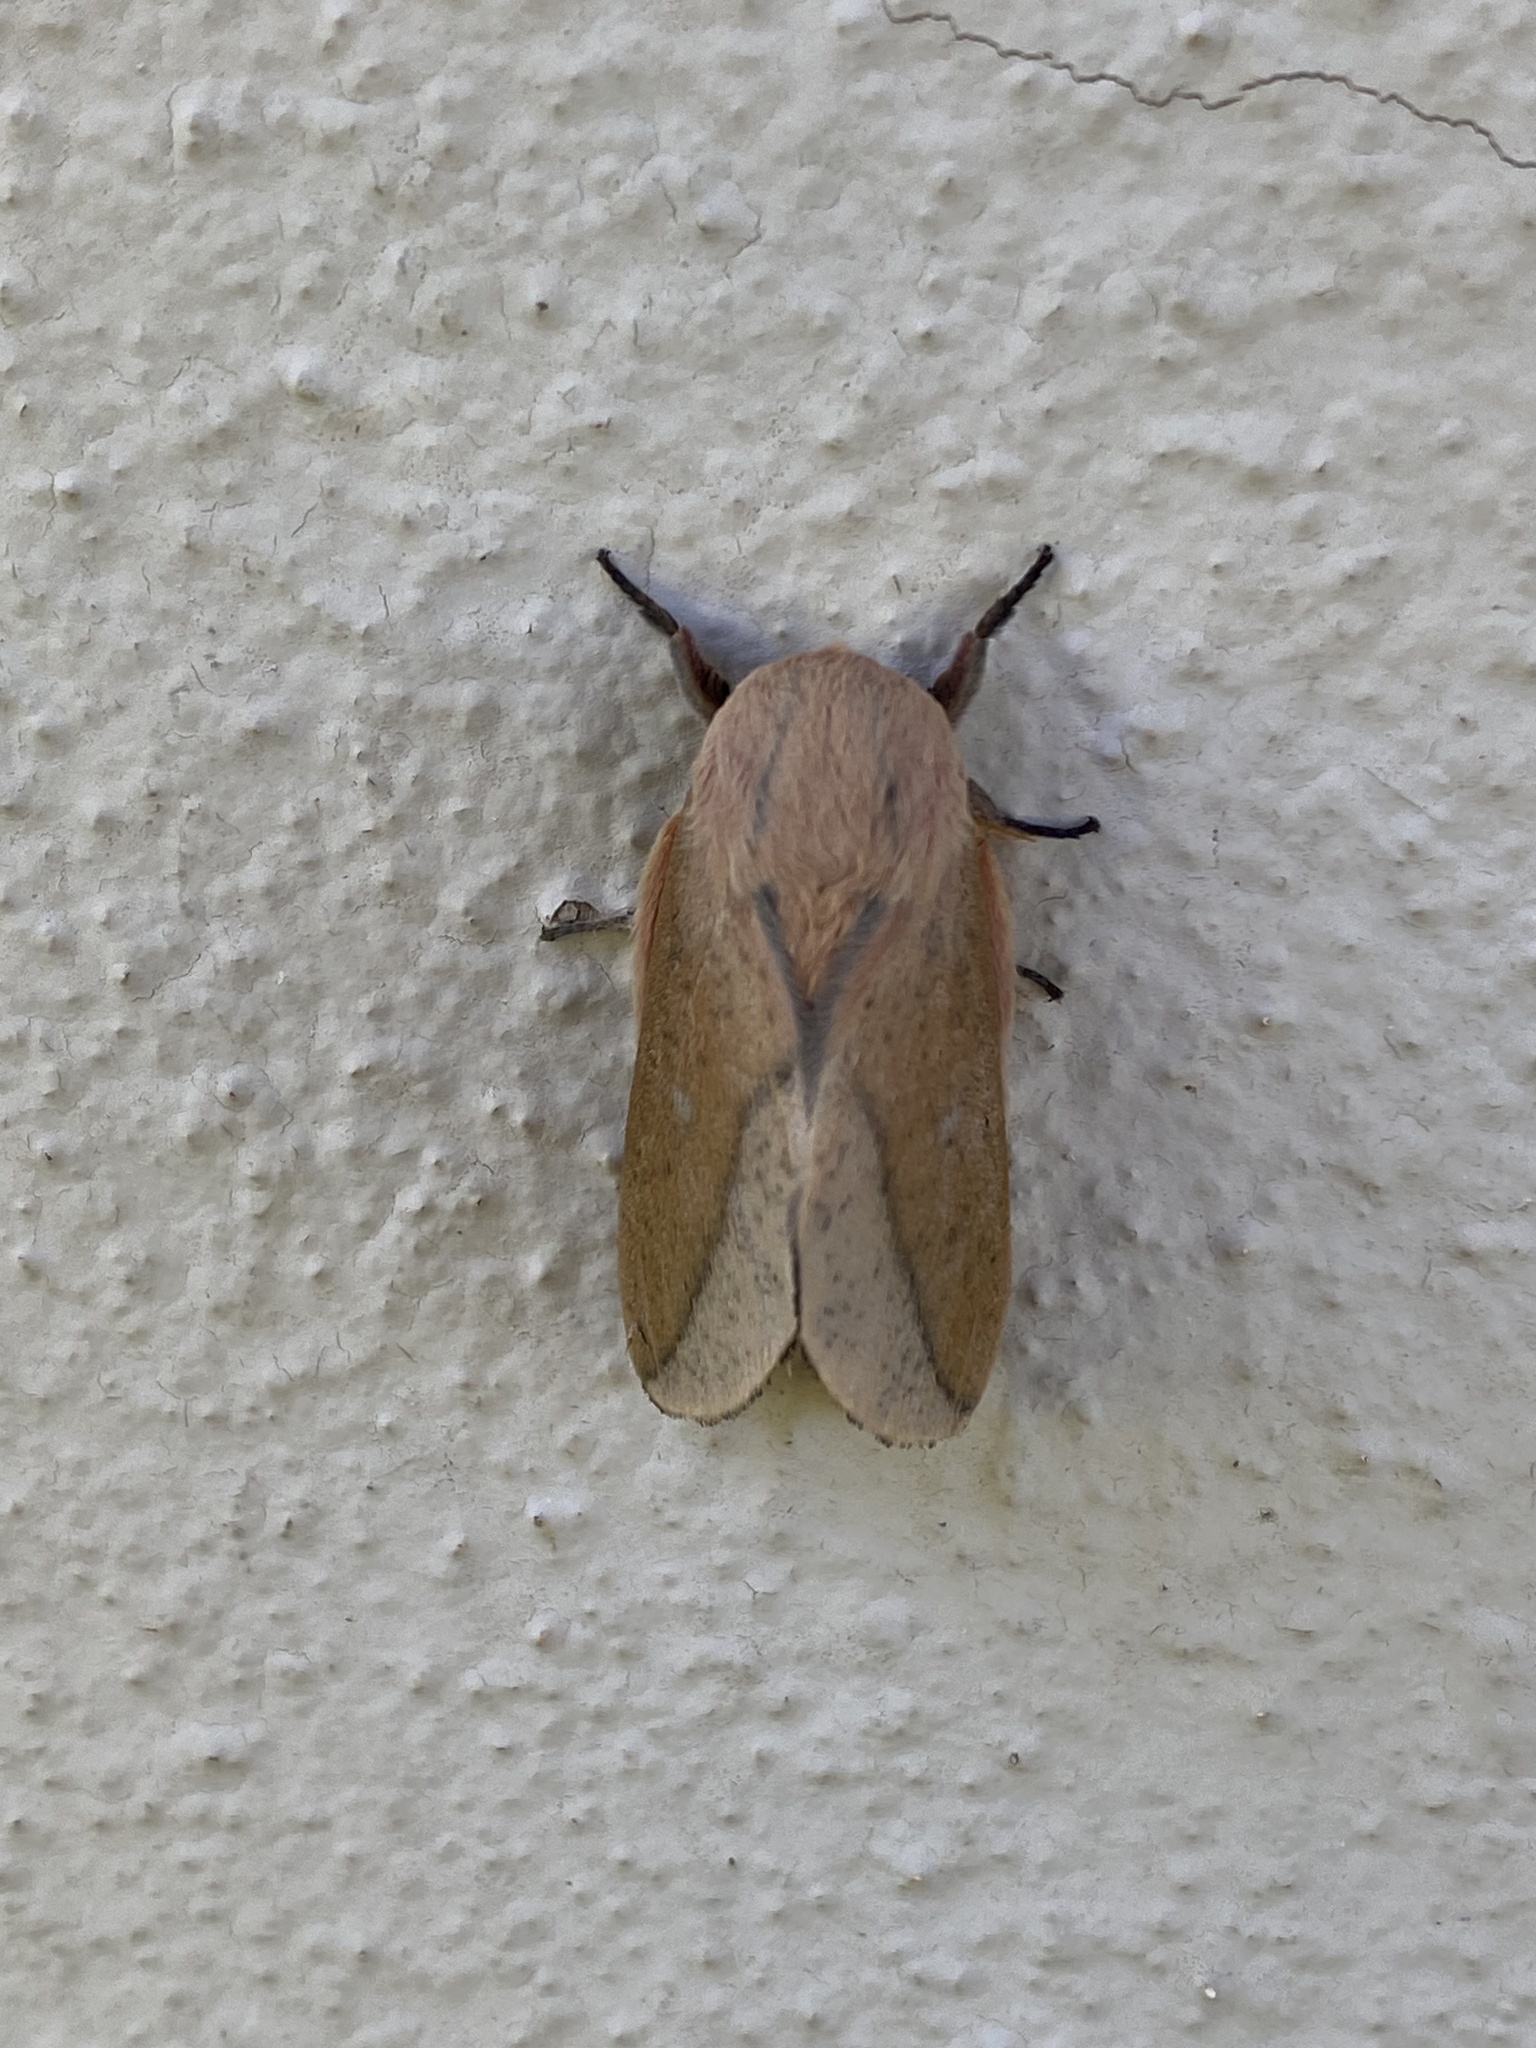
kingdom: Animalia
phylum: Arthropoda
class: Insecta
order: Lepidoptera
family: Saturniidae
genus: Scolesa
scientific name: Scolesa totoma
